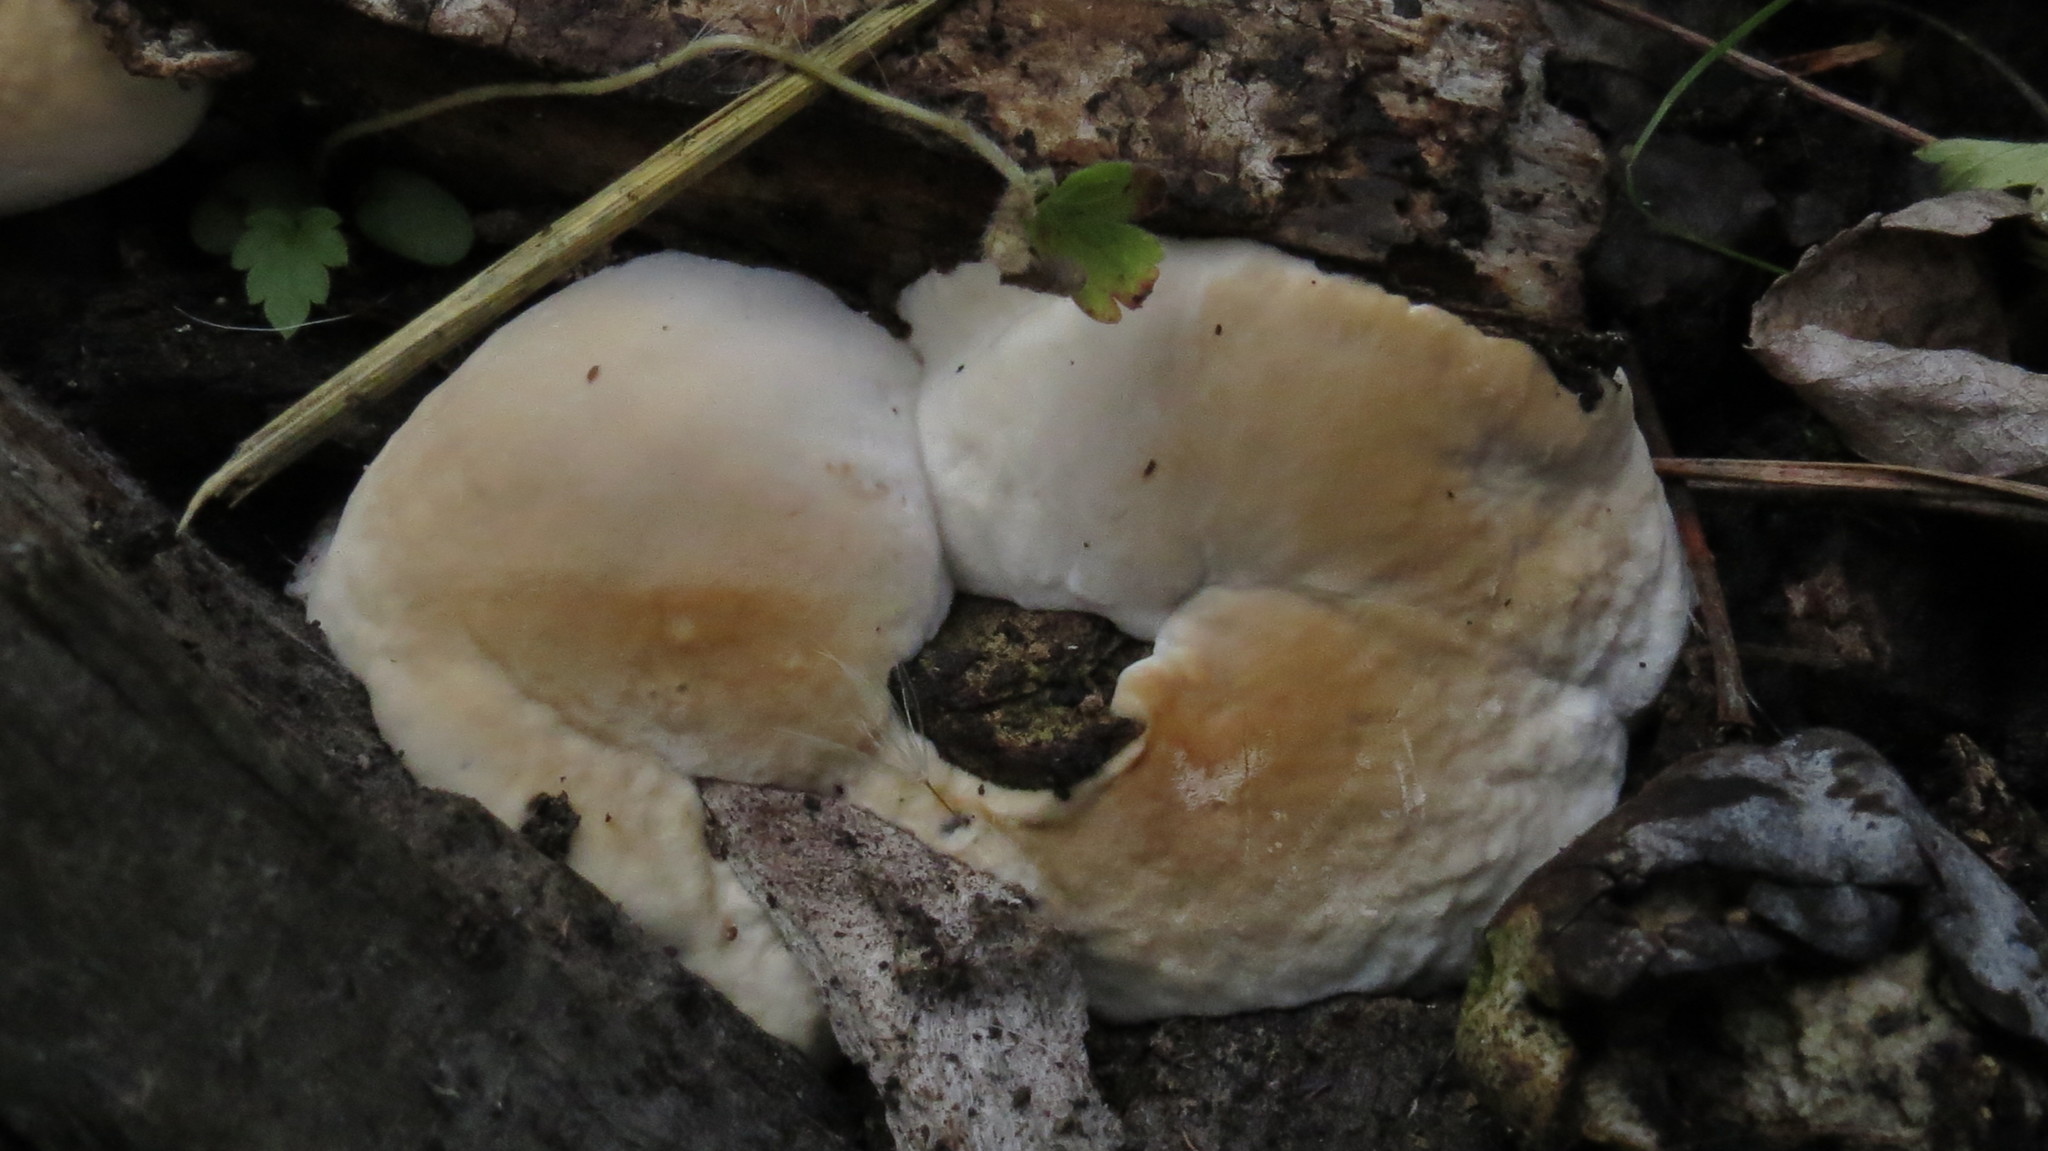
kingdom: Fungi
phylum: Basidiomycota
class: Agaricomycetes
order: Polyporales
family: Fomitopsidaceae
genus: Fomitopsis
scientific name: Fomitopsis pinicola
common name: Red-belted bracket
